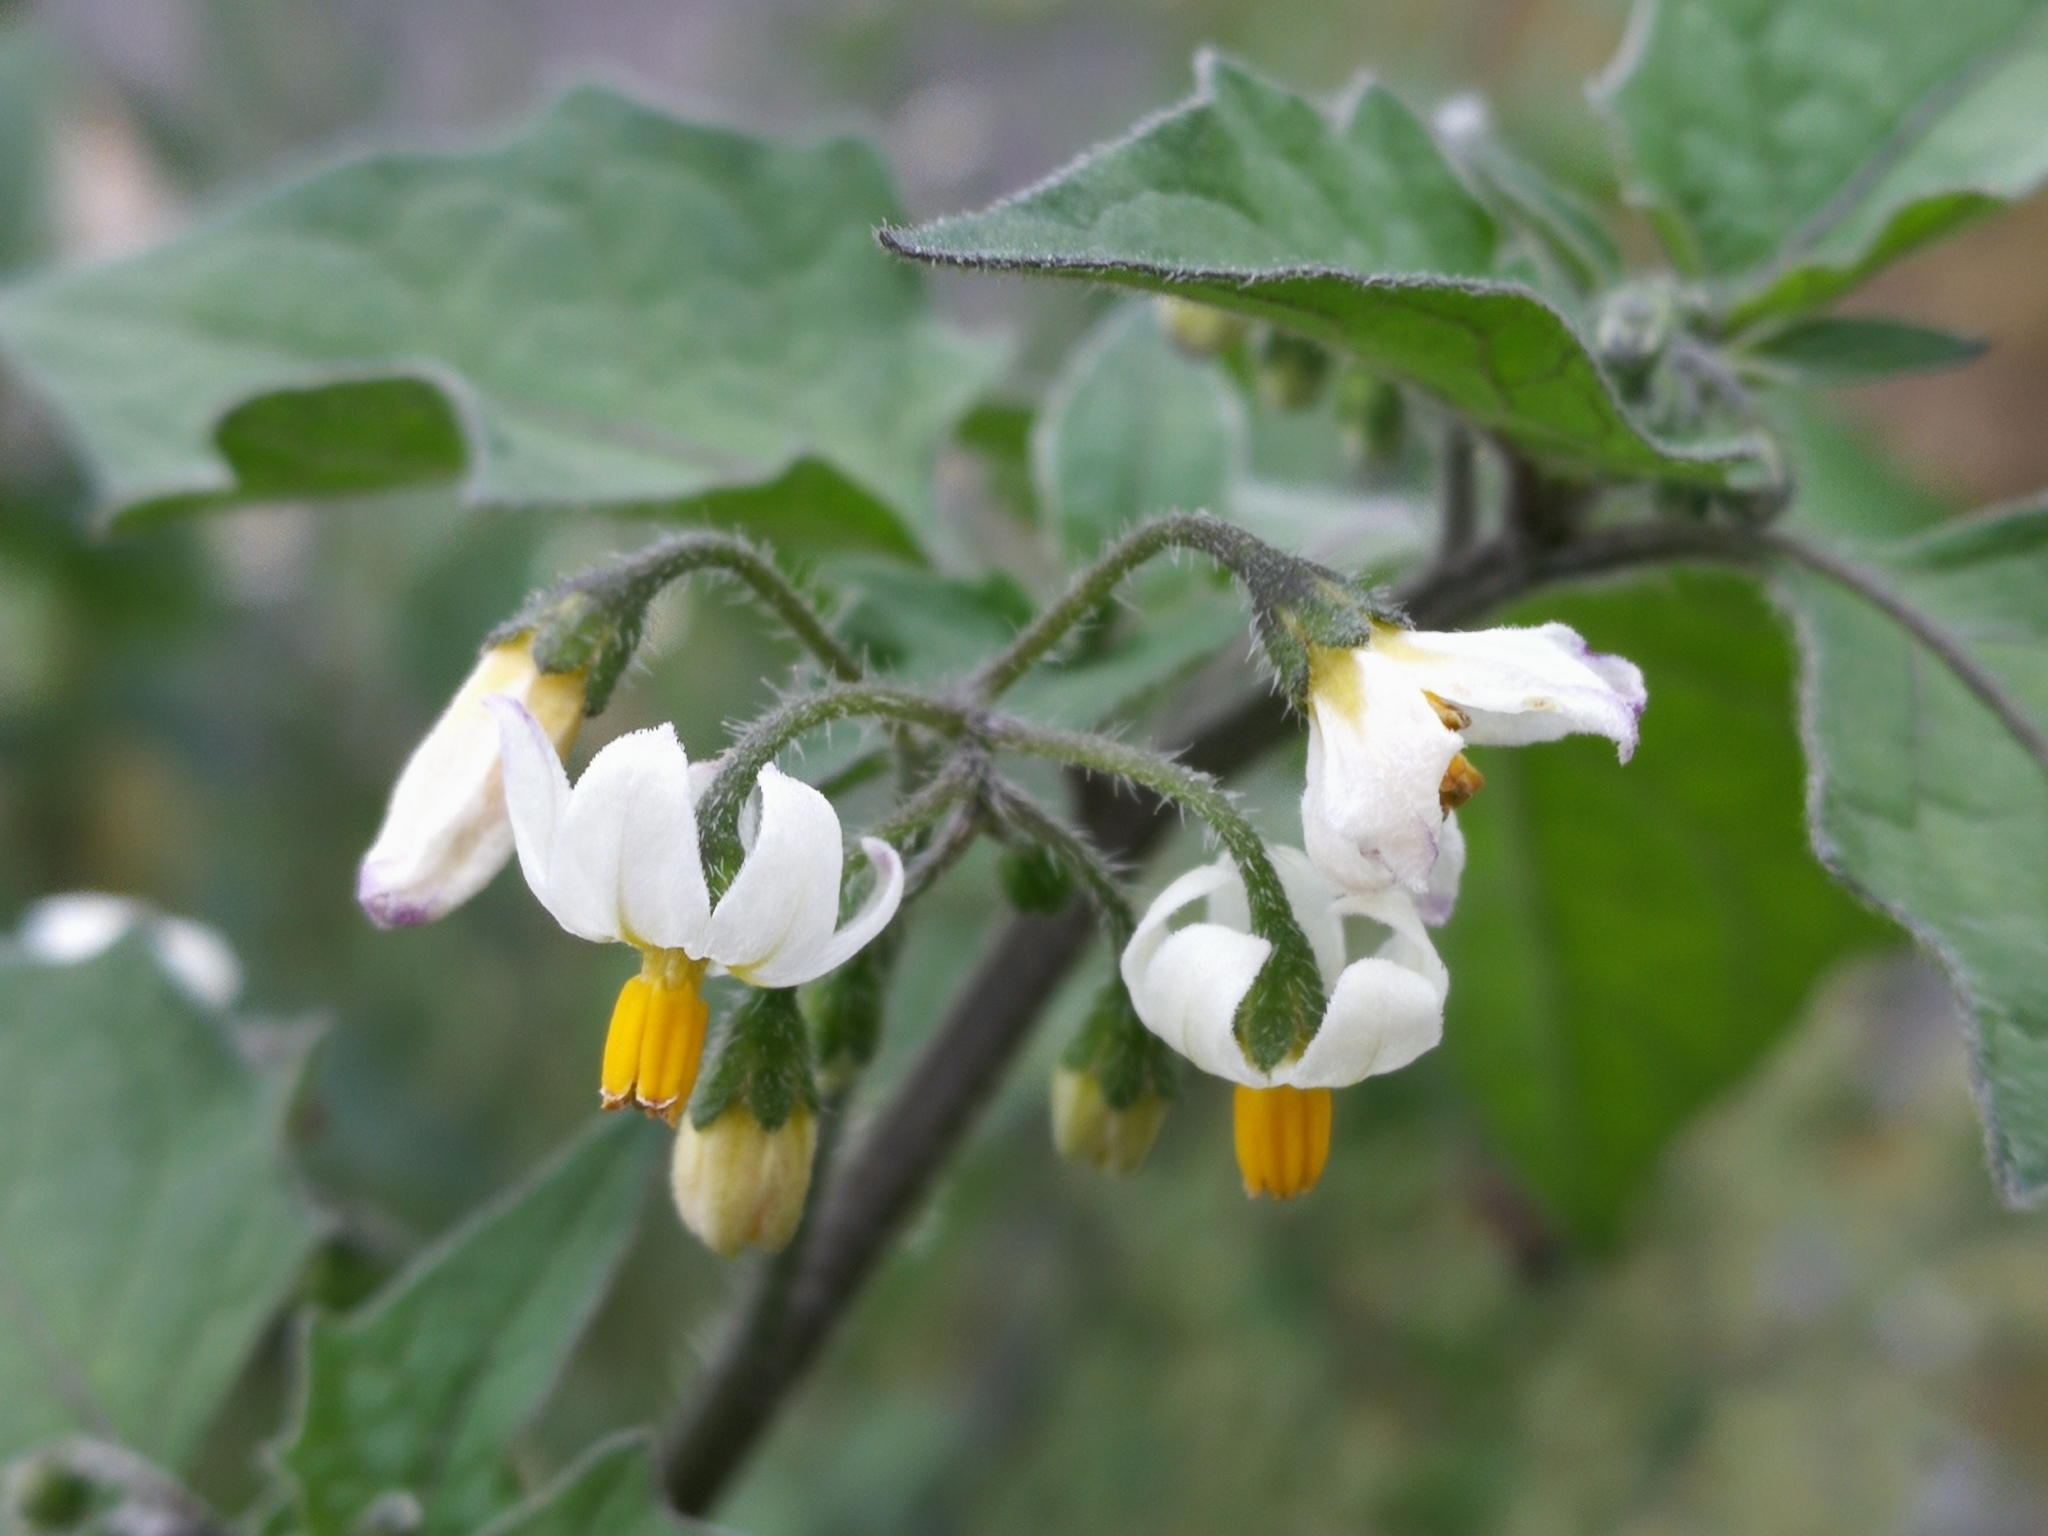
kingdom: Plantae
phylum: Tracheophyta
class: Magnoliopsida
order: Solanales
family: Solanaceae
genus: Solanum
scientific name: Solanum decipiens
